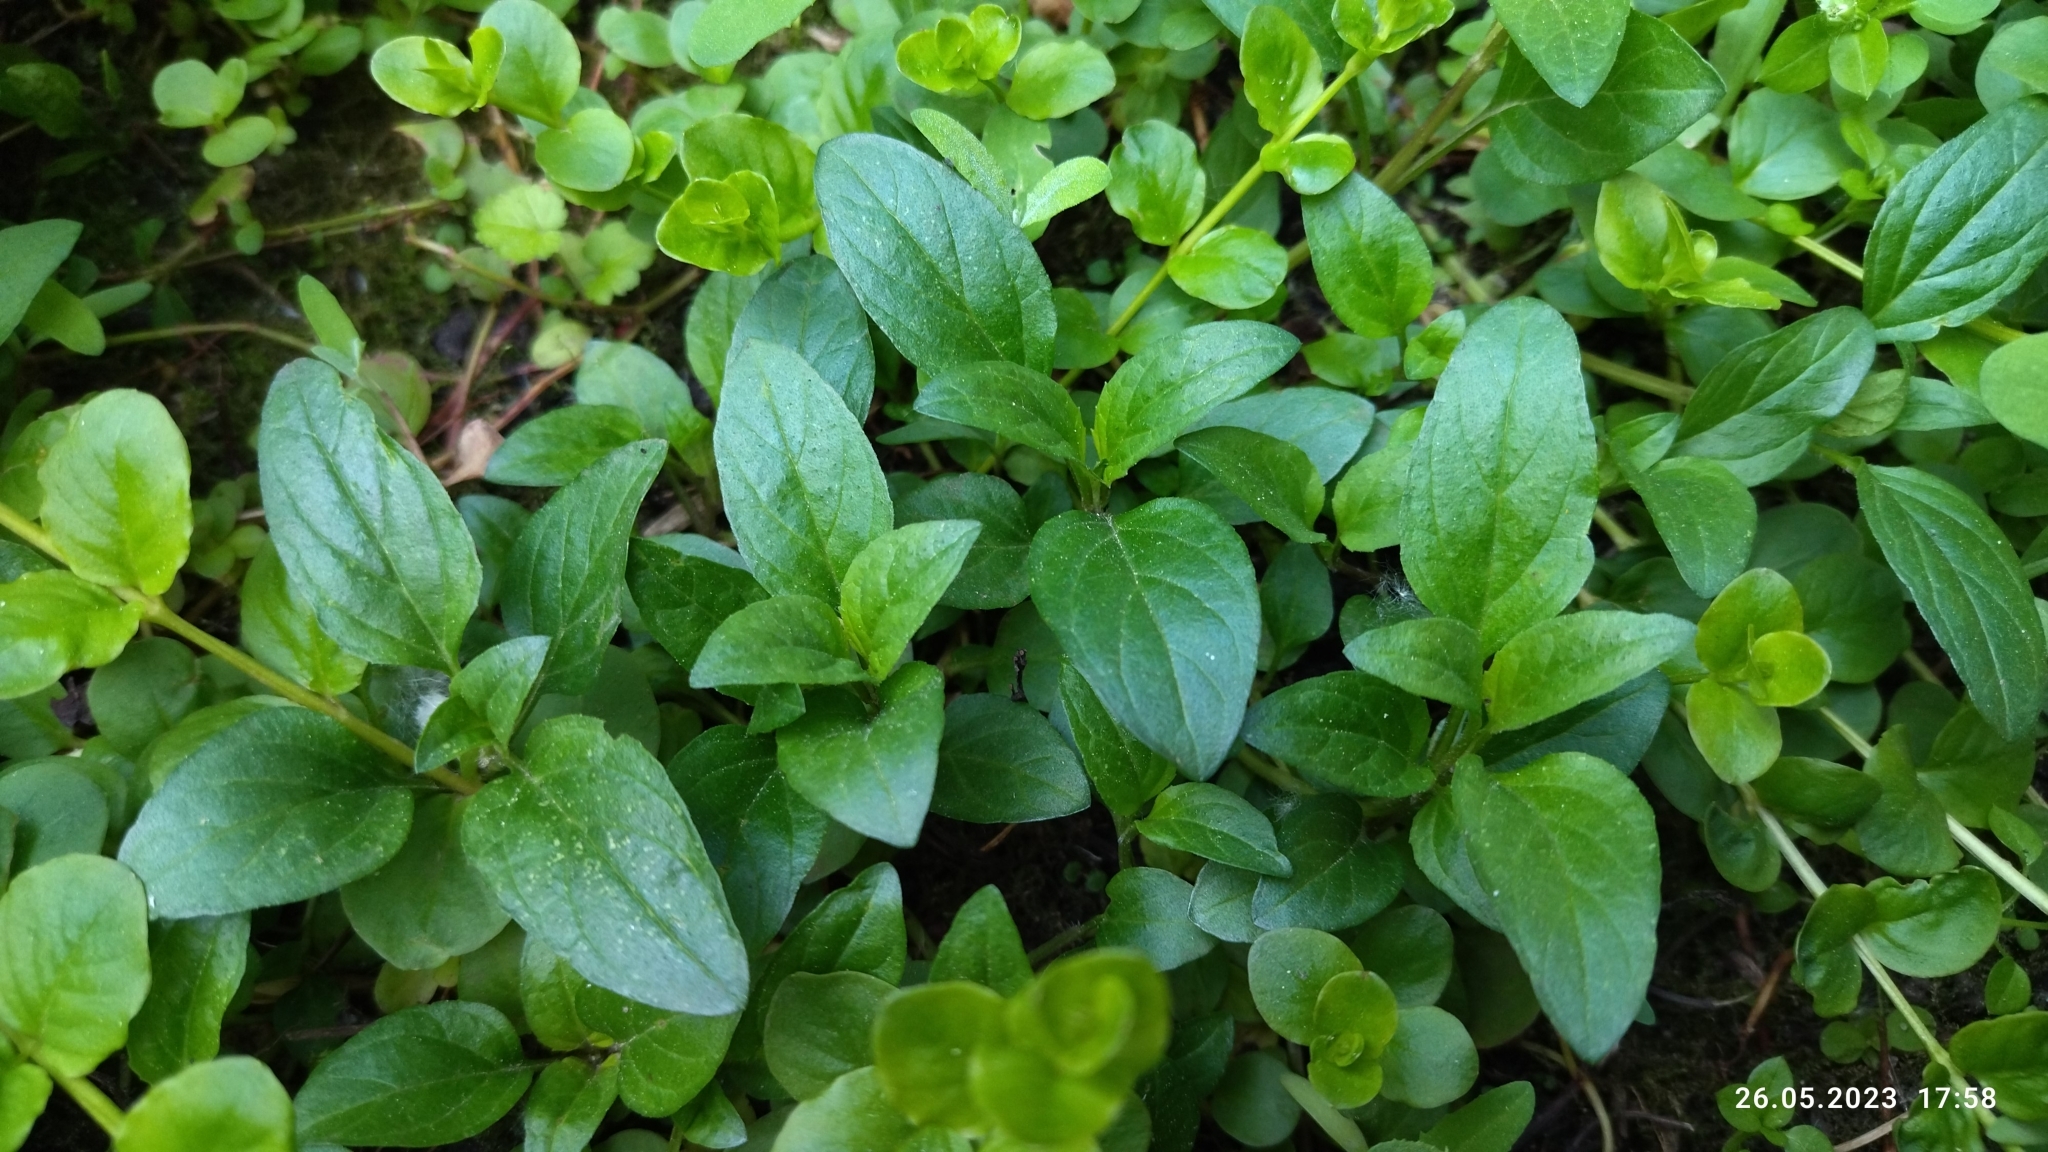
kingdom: Plantae
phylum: Tracheophyta
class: Magnoliopsida
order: Lamiales
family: Lamiaceae
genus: Prunella
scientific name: Prunella vulgaris
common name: Heal-all
